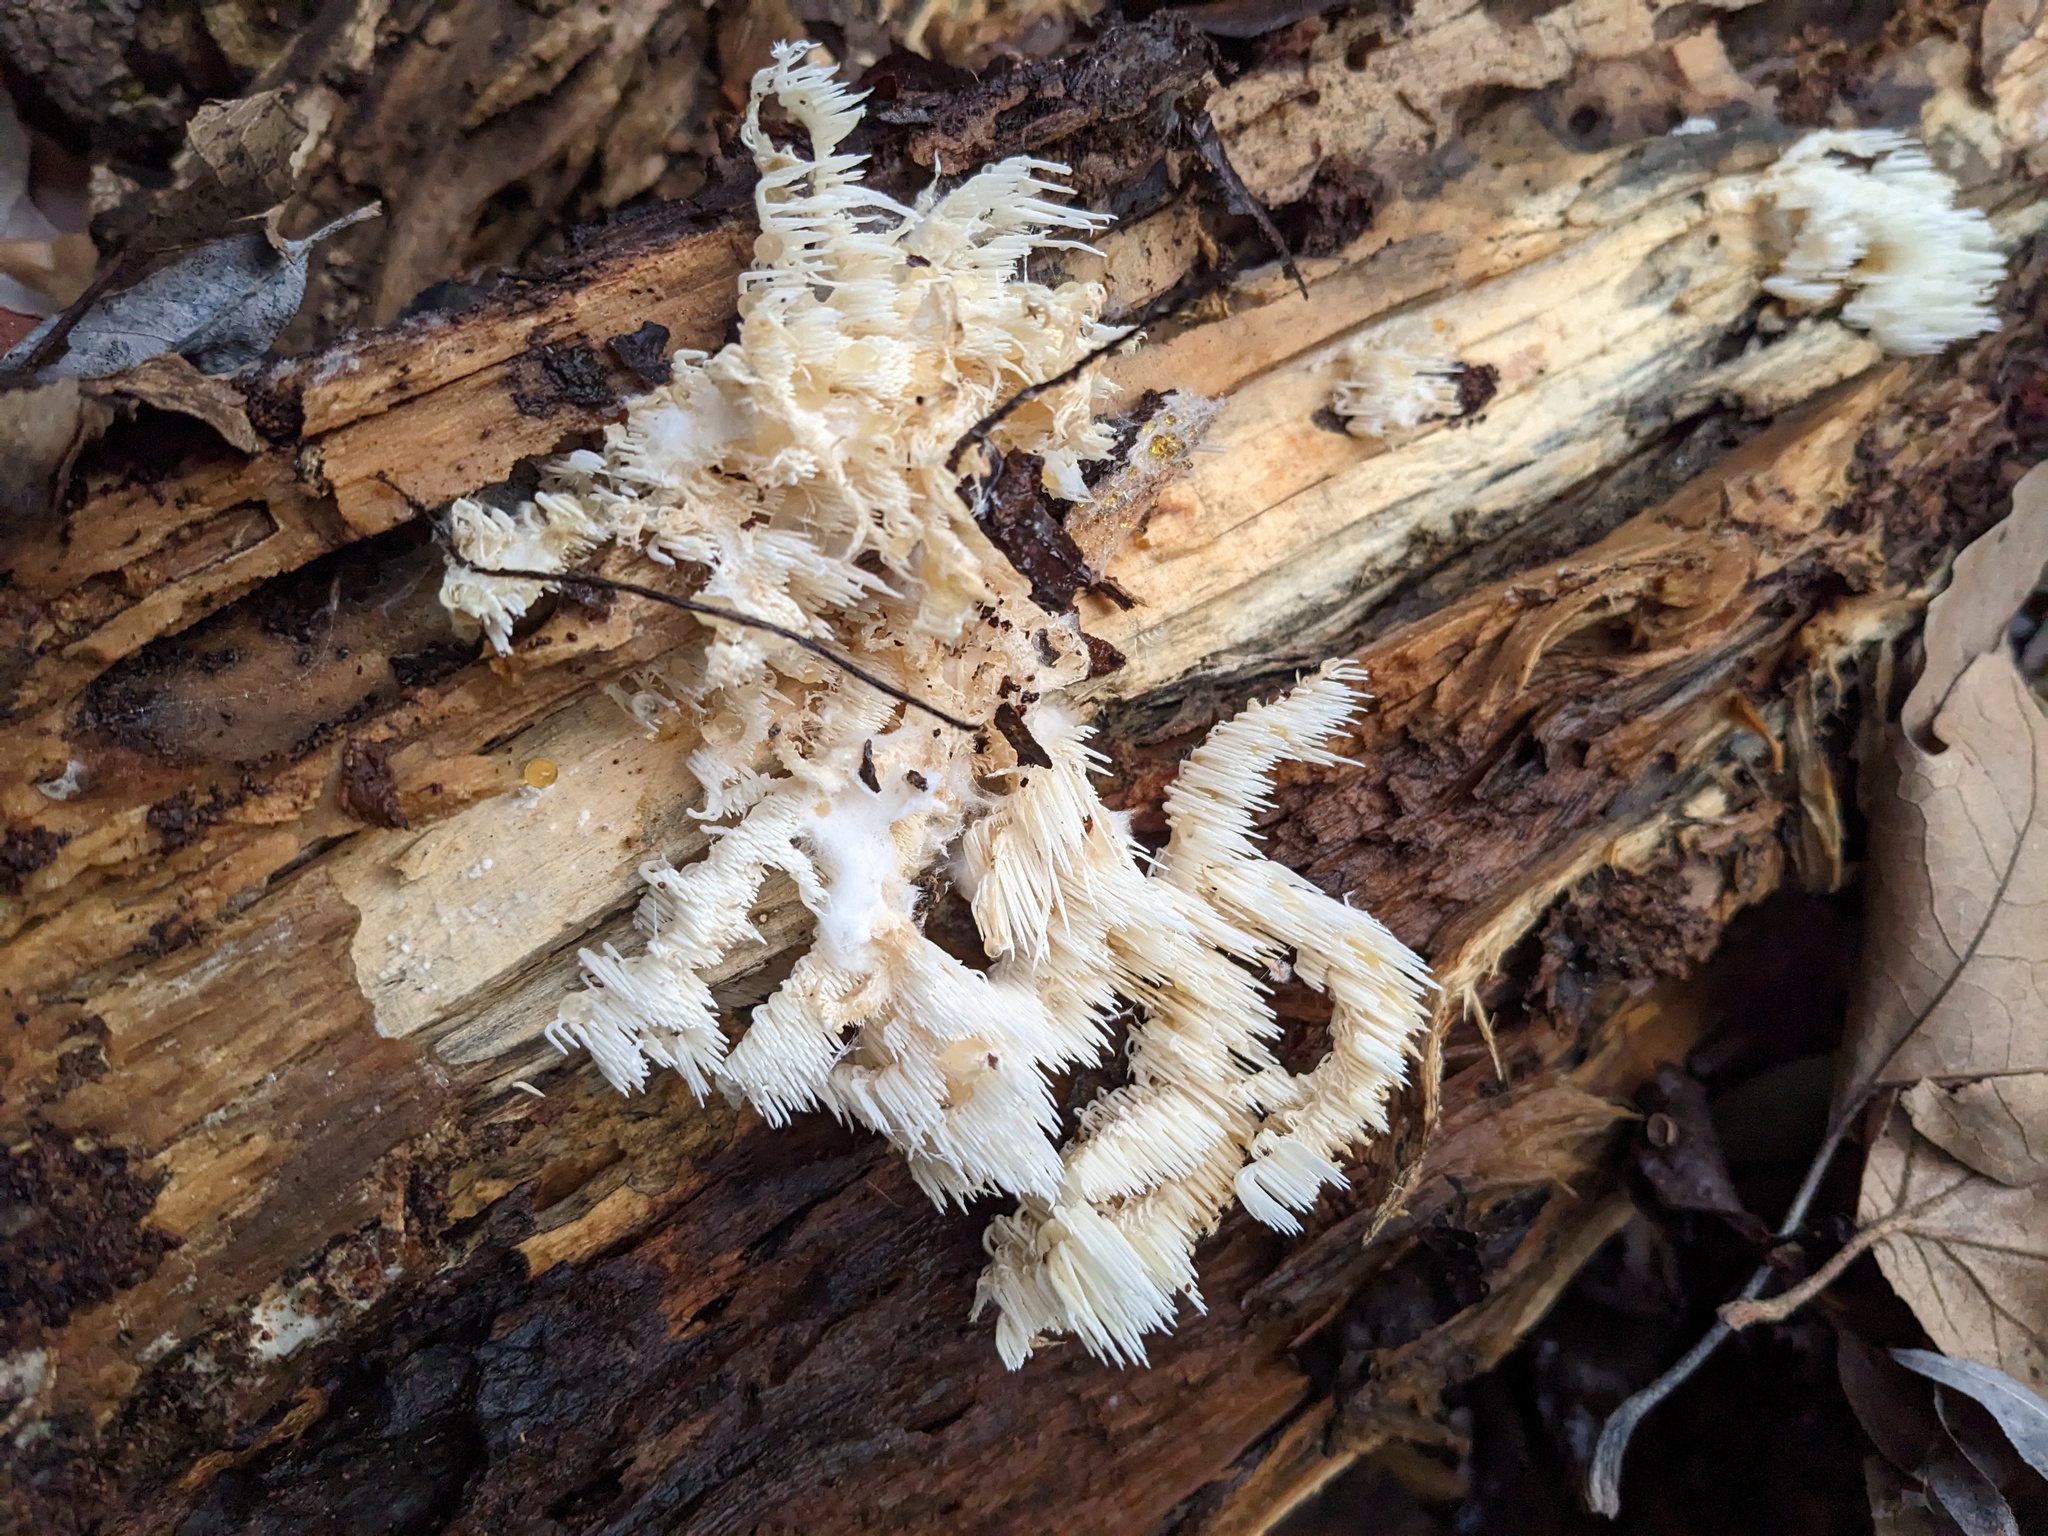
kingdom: Fungi
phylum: Basidiomycota
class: Agaricomycetes
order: Russulales
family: Hericiaceae
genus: Hericium
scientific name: Hericium coralloides
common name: Coral tooth
